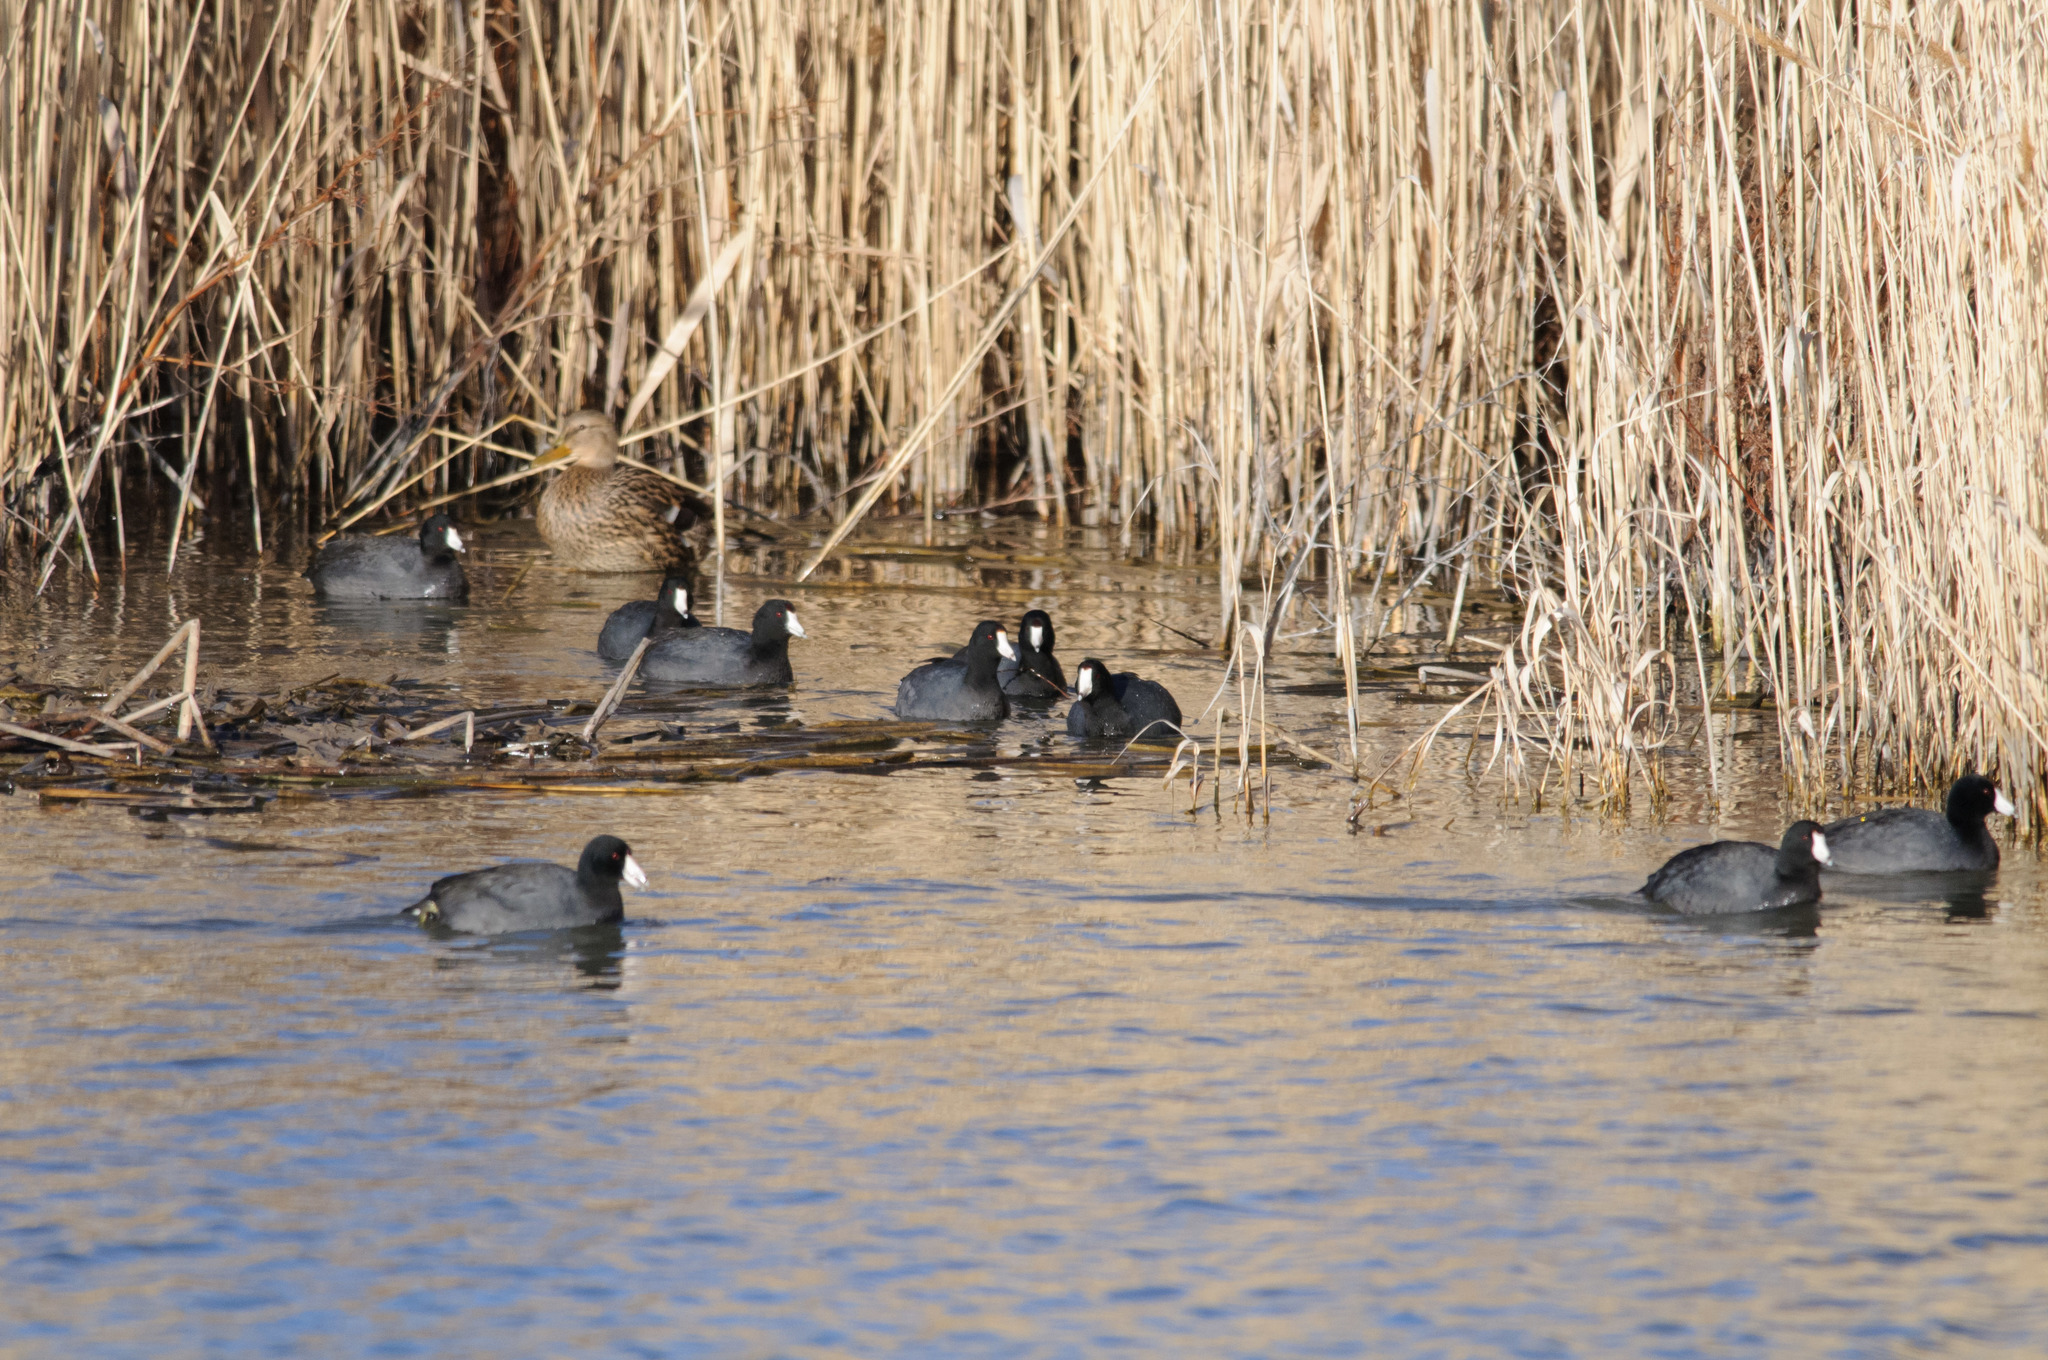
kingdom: Animalia
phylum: Chordata
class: Aves
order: Gruiformes
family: Rallidae
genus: Fulica
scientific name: Fulica americana
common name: American coot
